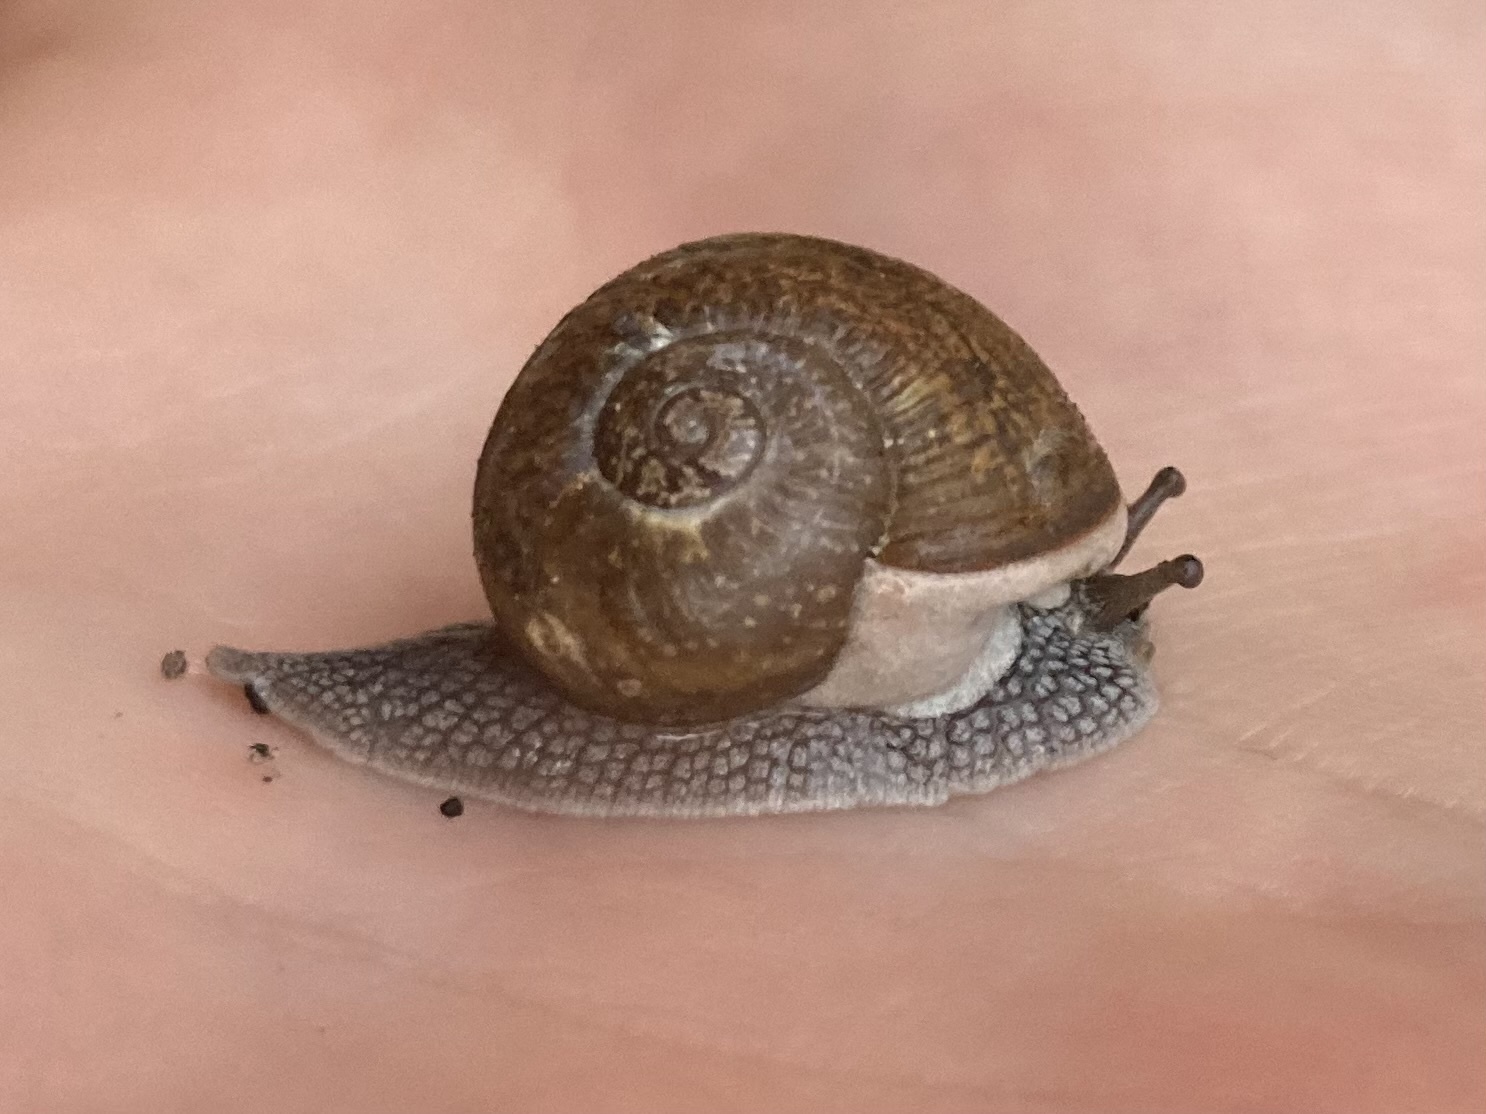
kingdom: Animalia
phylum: Mollusca
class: Gastropoda
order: Stylommatophora
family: Zachrysiidae
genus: Zachrysia
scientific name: Zachrysia provisoria
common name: Garden zachrysia
